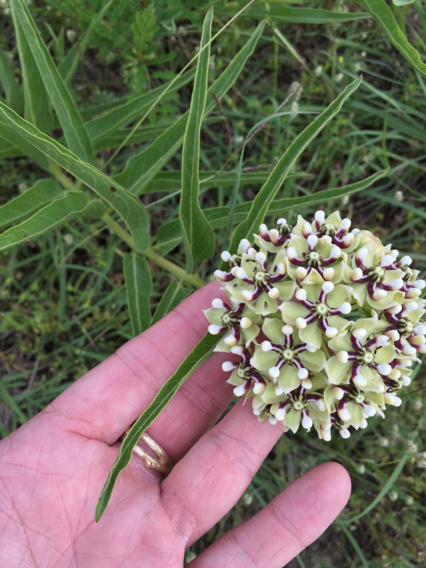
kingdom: Plantae
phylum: Tracheophyta
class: Magnoliopsida
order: Gentianales
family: Apocynaceae
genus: Asclepias
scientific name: Asclepias asperula
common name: Antelope horns
